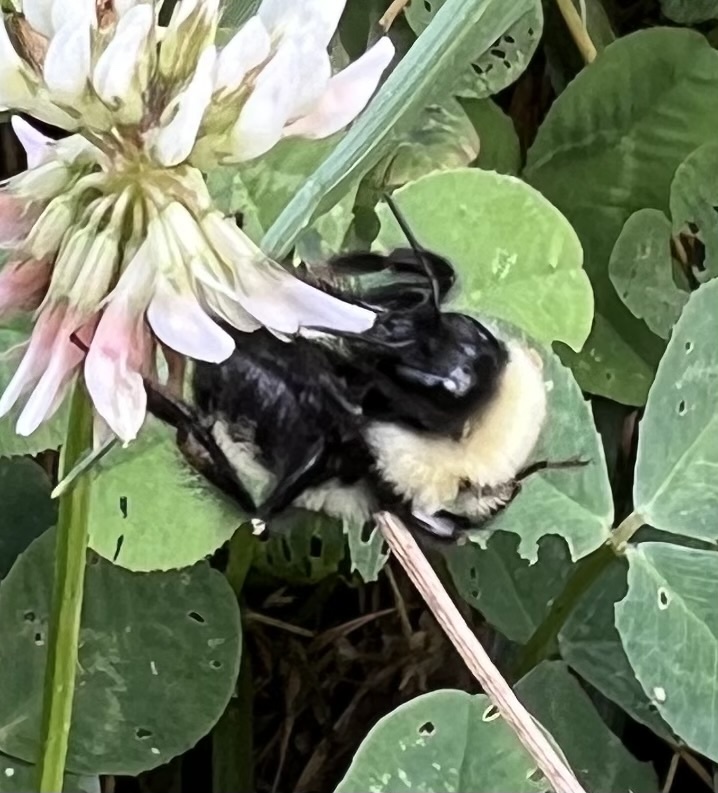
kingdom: Animalia
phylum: Arthropoda
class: Insecta
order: Hymenoptera
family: Apidae
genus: Bombus
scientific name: Bombus fervidus
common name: Yellow bumble bee
